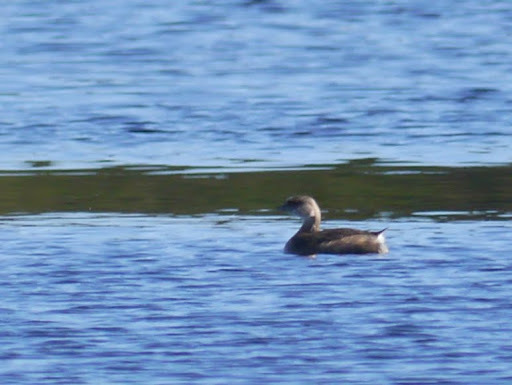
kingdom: Animalia
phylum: Chordata
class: Aves
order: Podicipediformes
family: Podicipedidae
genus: Podilymbus
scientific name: Podilymbus podiceps
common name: Pied-billed grebe
